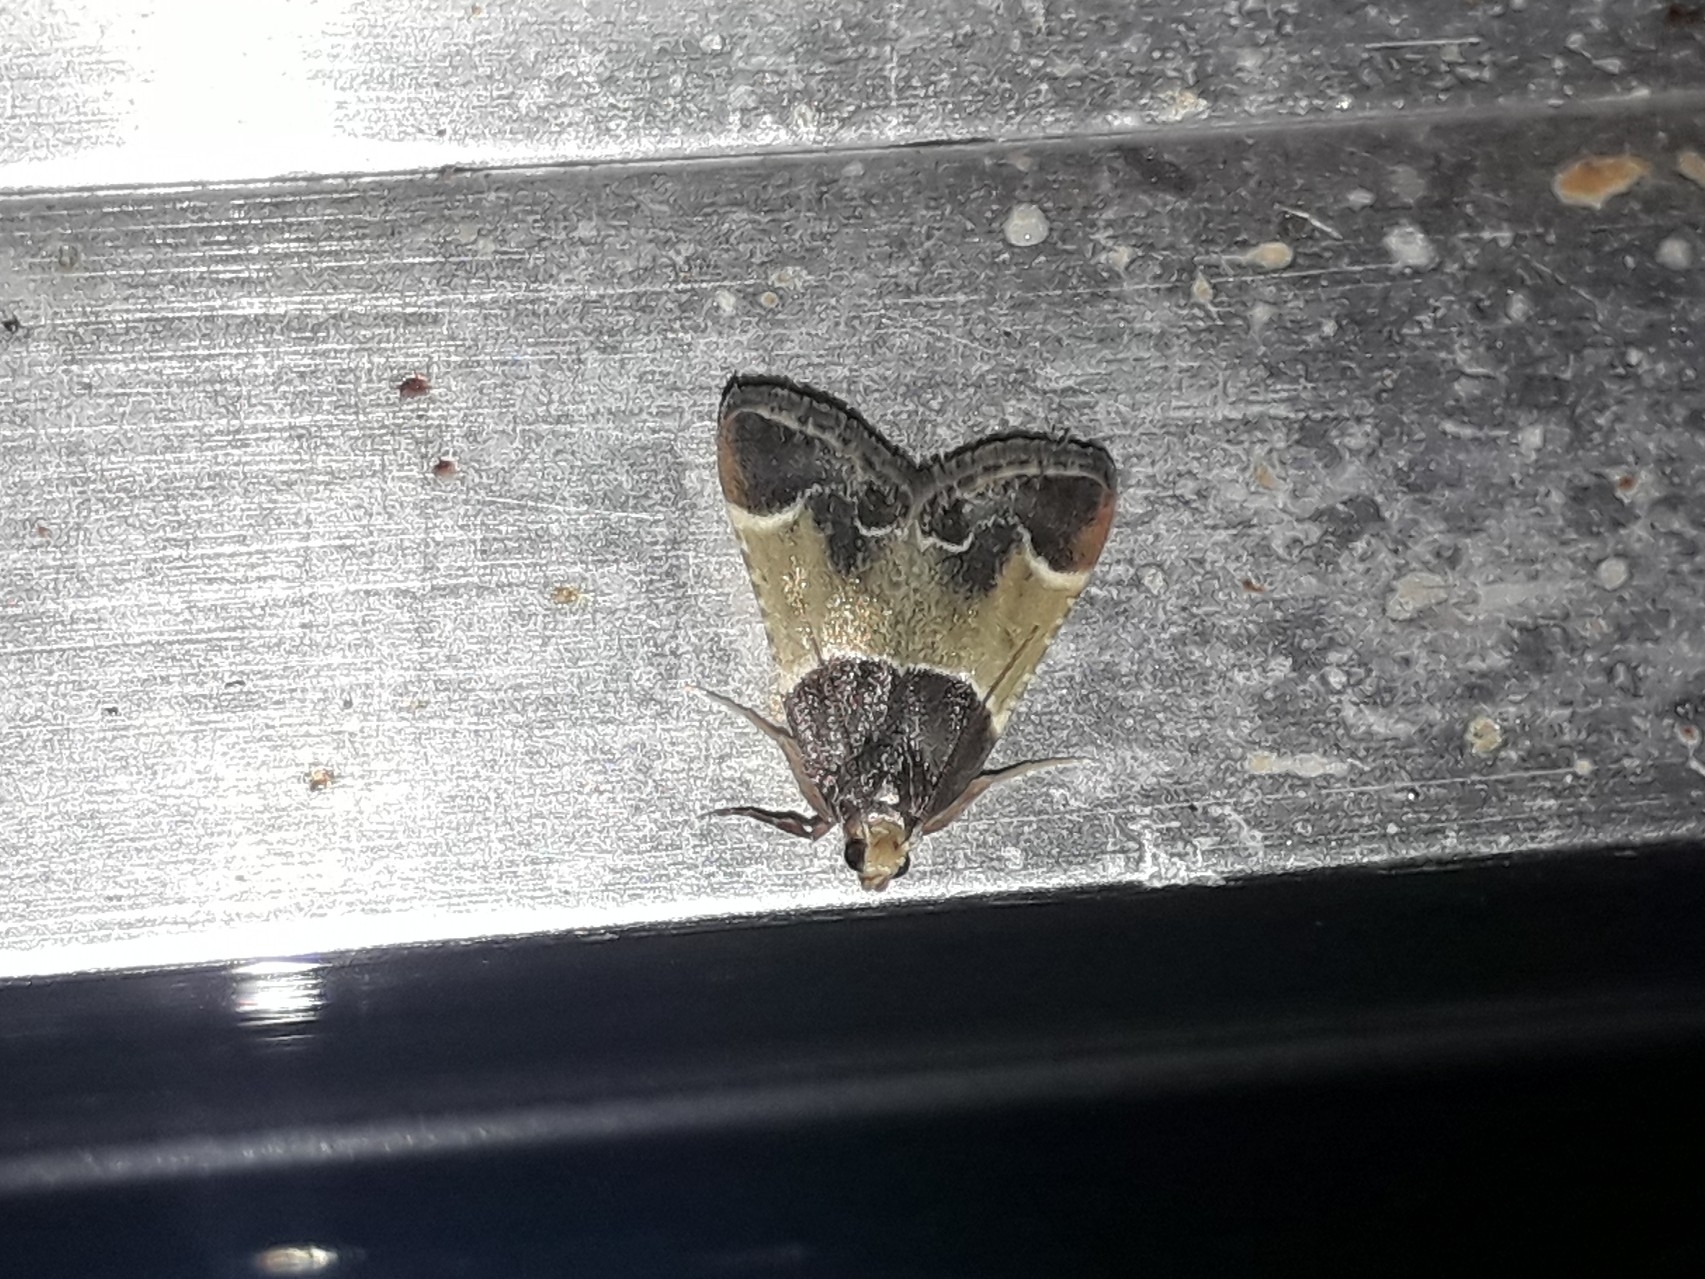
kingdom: Animalia
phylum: Arthropoda
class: Insecta
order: Lepidoptera
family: Pyralidae
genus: Pyralis
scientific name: Pyralis farinalis
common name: Meal moth
